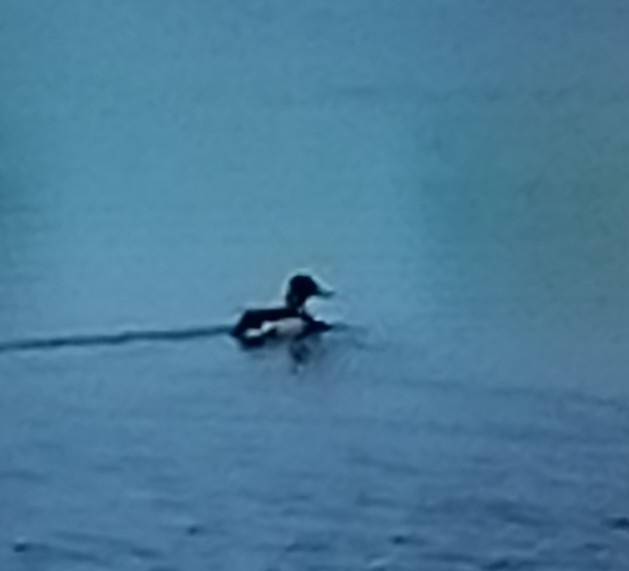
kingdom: Animalia
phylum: Chordata
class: Aves
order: Anseriformes
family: Anatidae
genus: Anas
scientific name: Anas platyrhynchos
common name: Mallard
